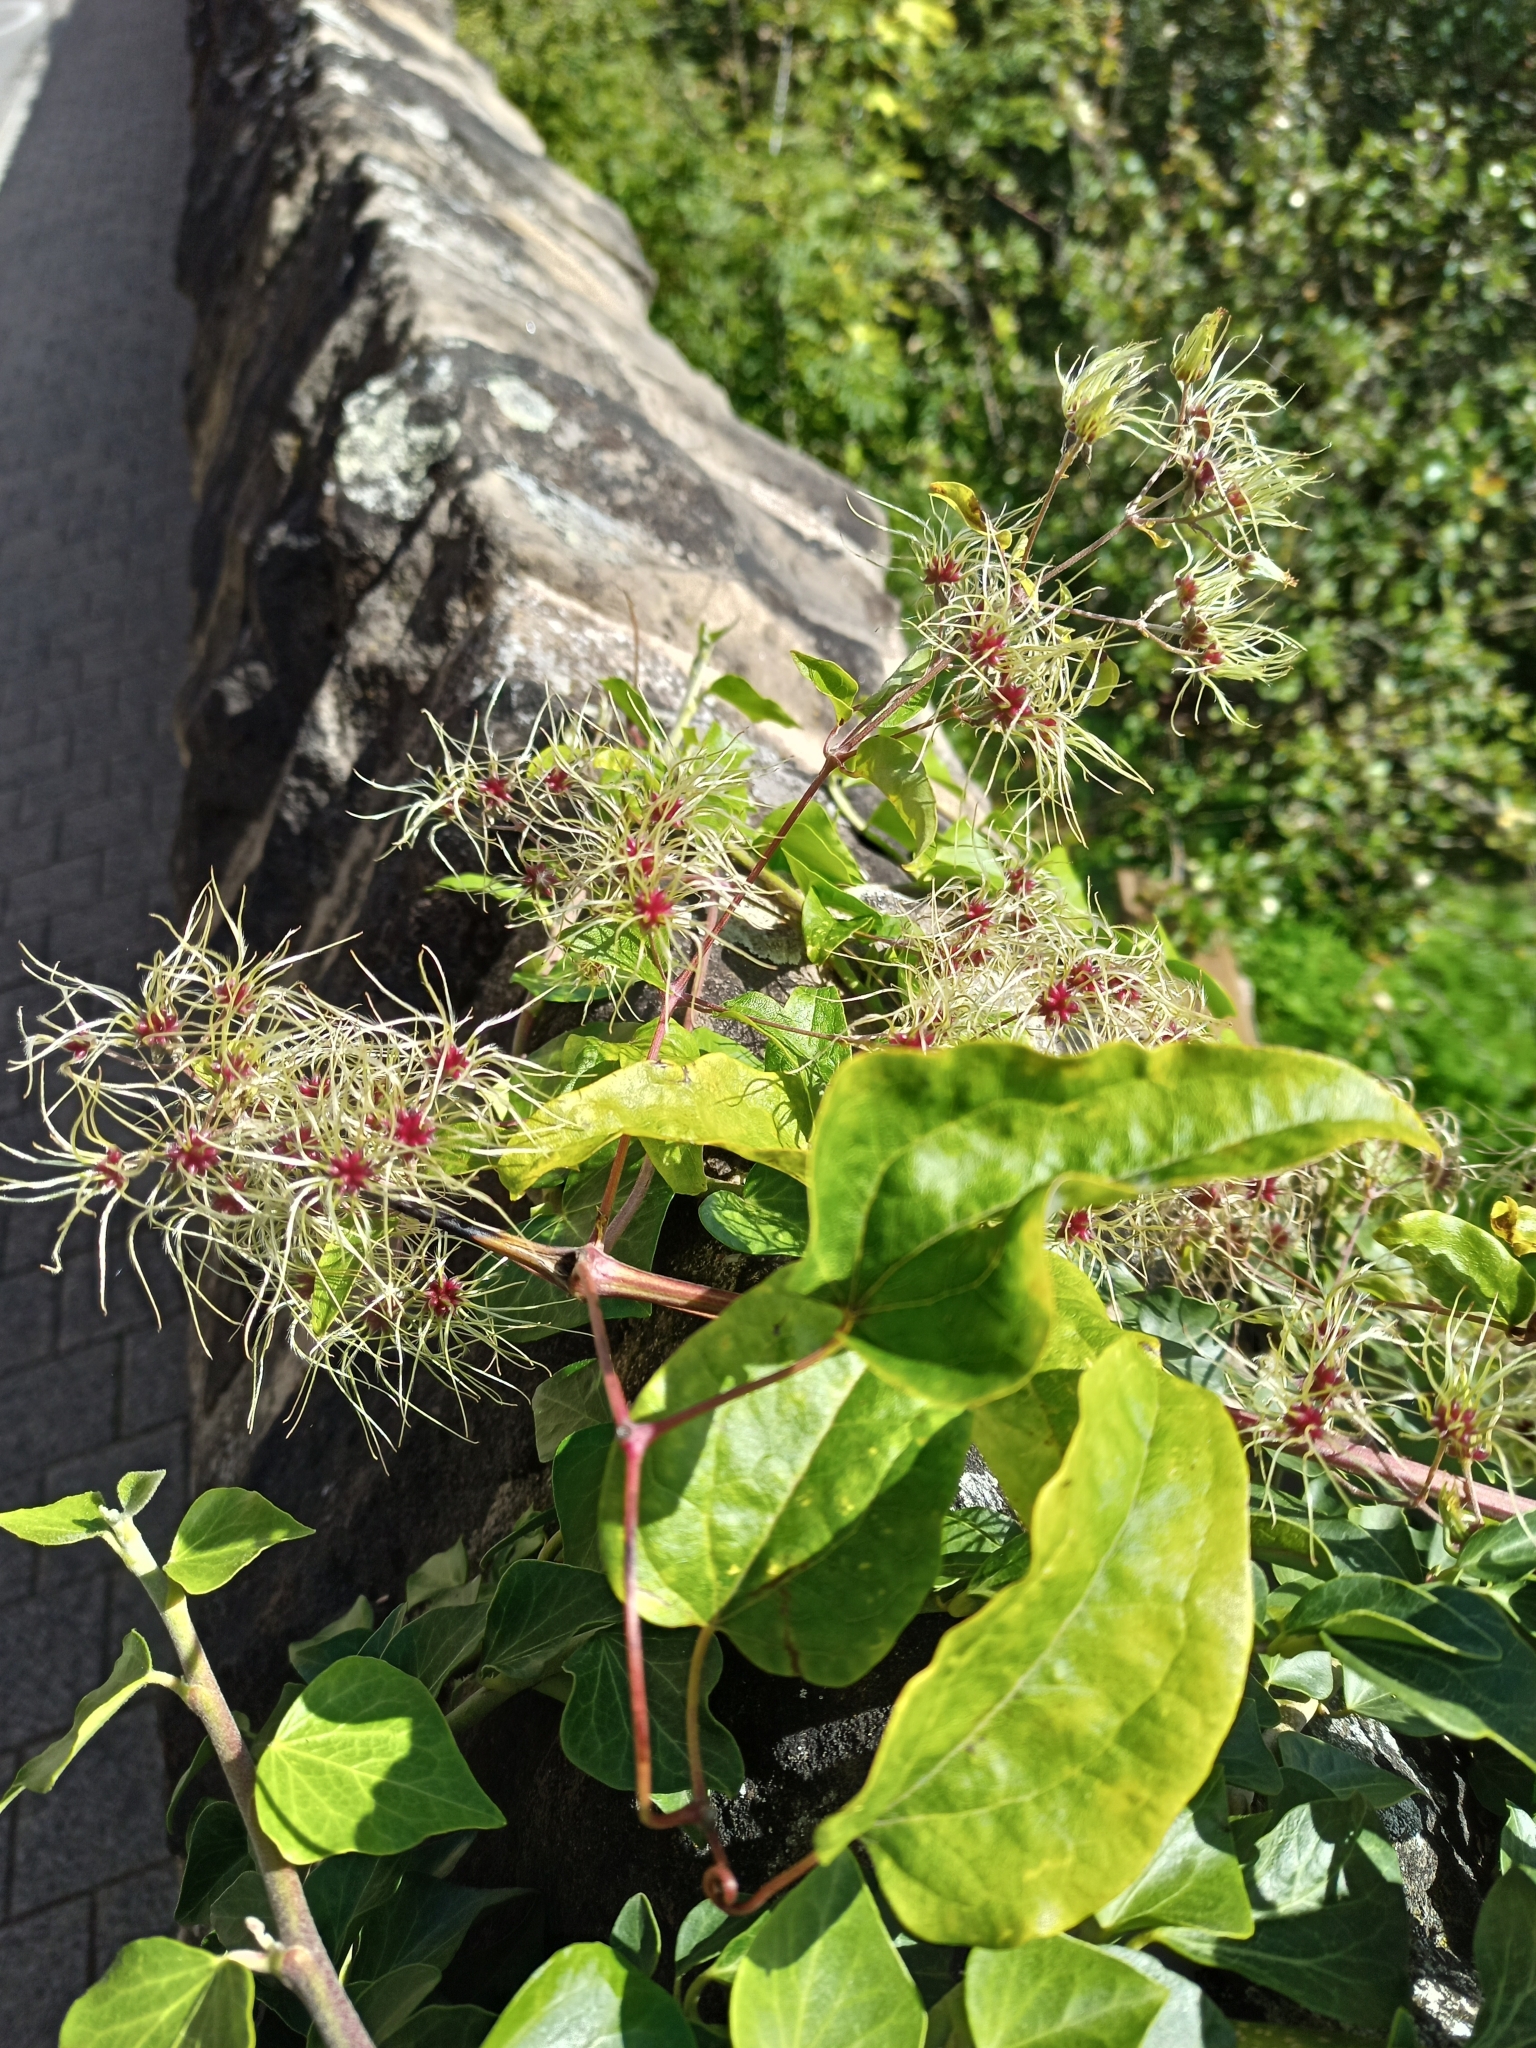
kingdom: Plantae
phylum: Tracheophyta
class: Magnoliopsida
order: Ranunculales
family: Ranunculaceae
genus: Clematis
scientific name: Clematis vitalba
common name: Evergreen clematis
